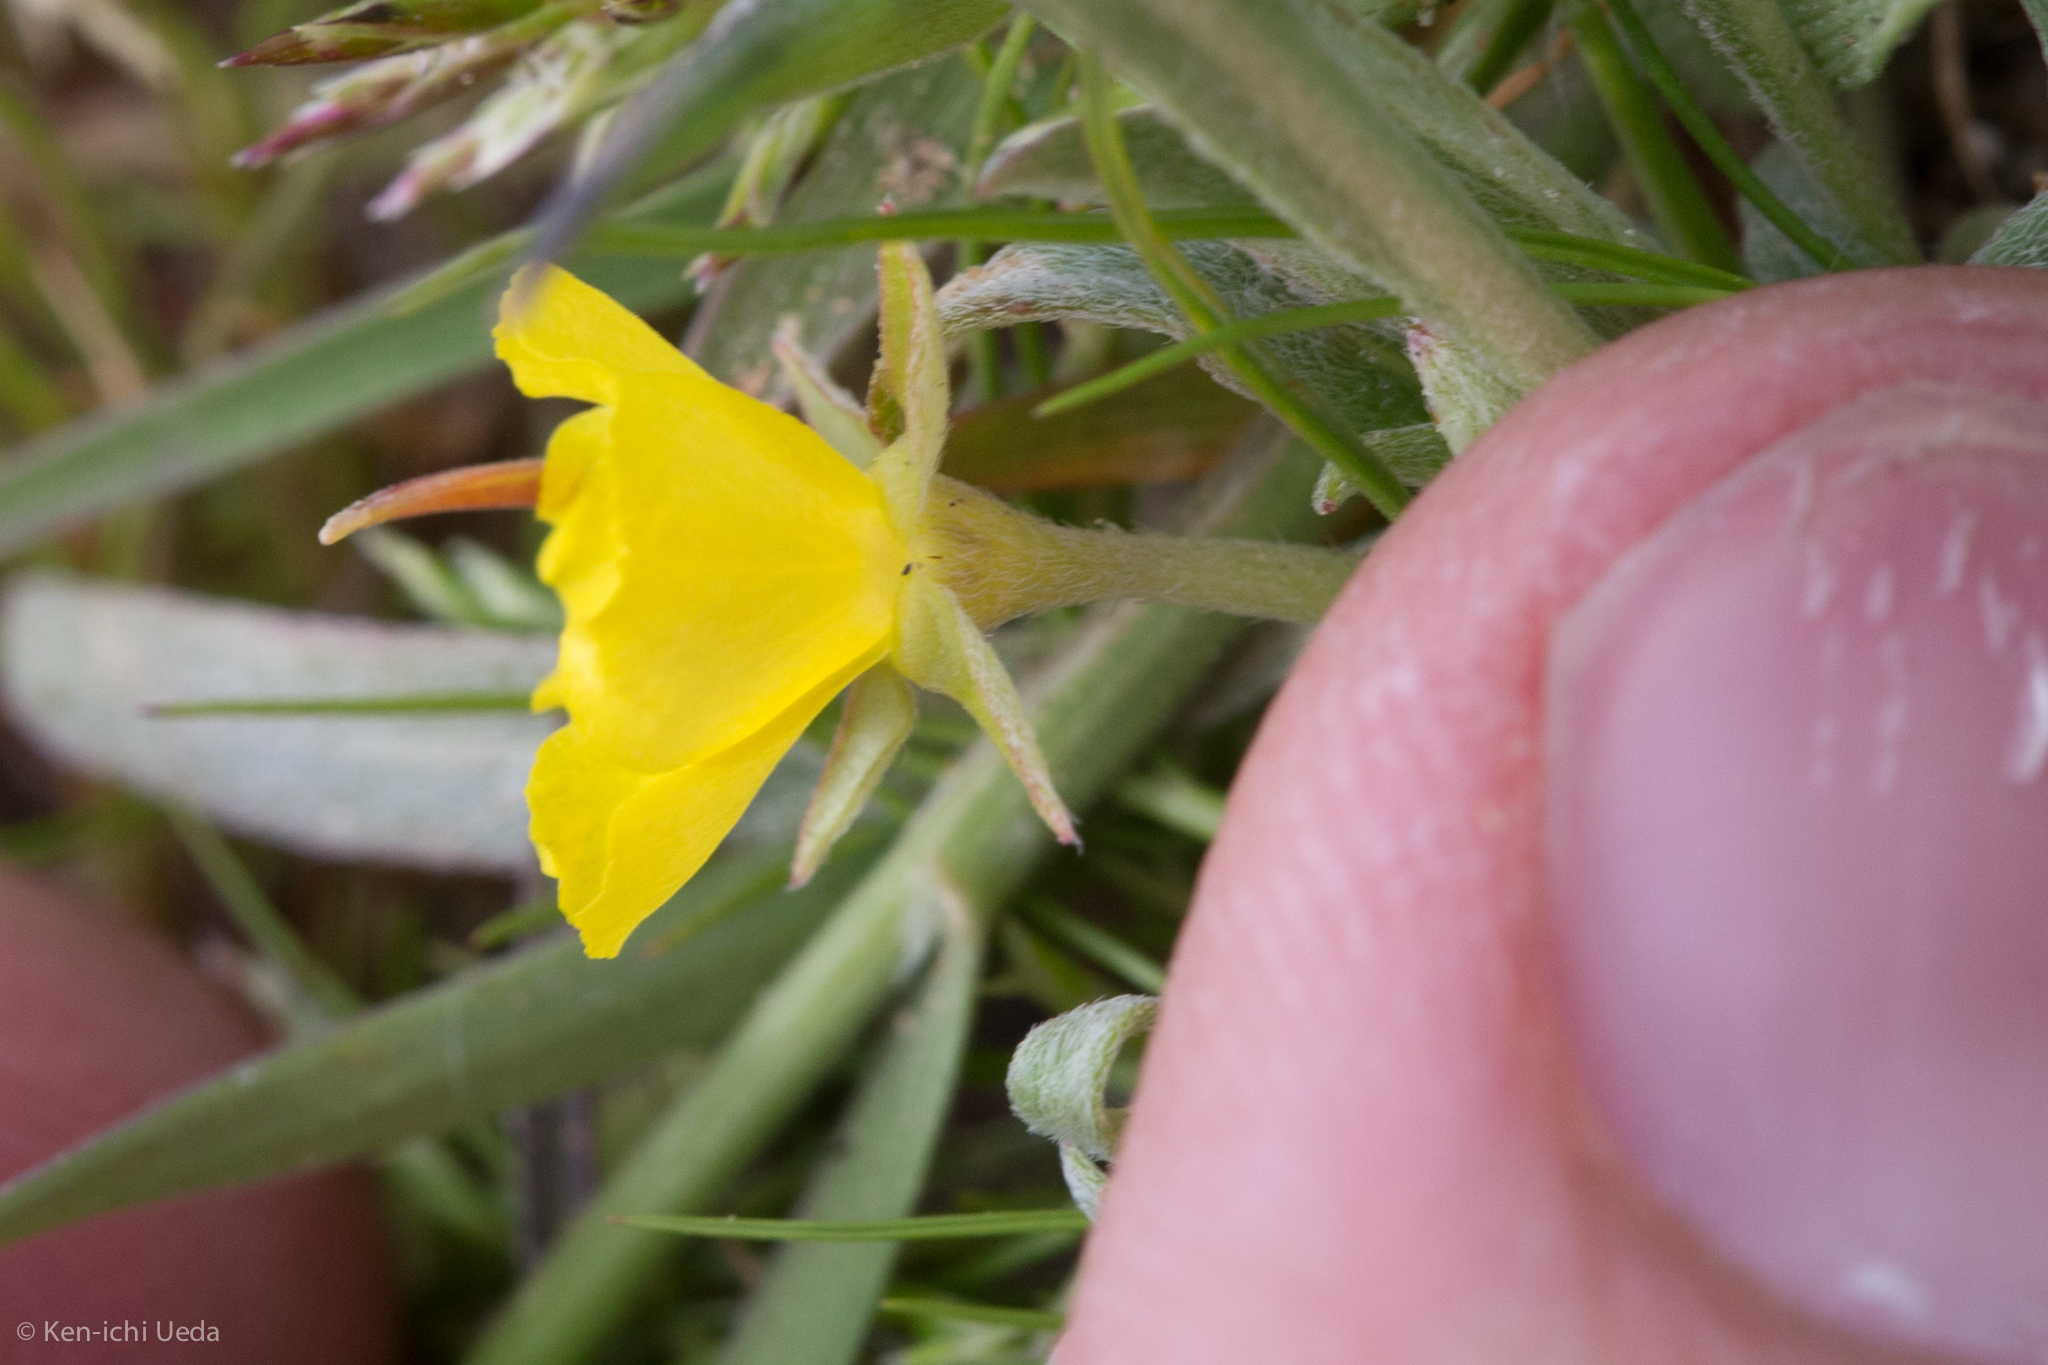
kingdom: Plantae
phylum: Tracheophyta
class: Magnoliopsida
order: Myrtales
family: Onagraceae
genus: Camissoniopsis
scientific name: Camissoniopsis pallida
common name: Paleyellow suncup
